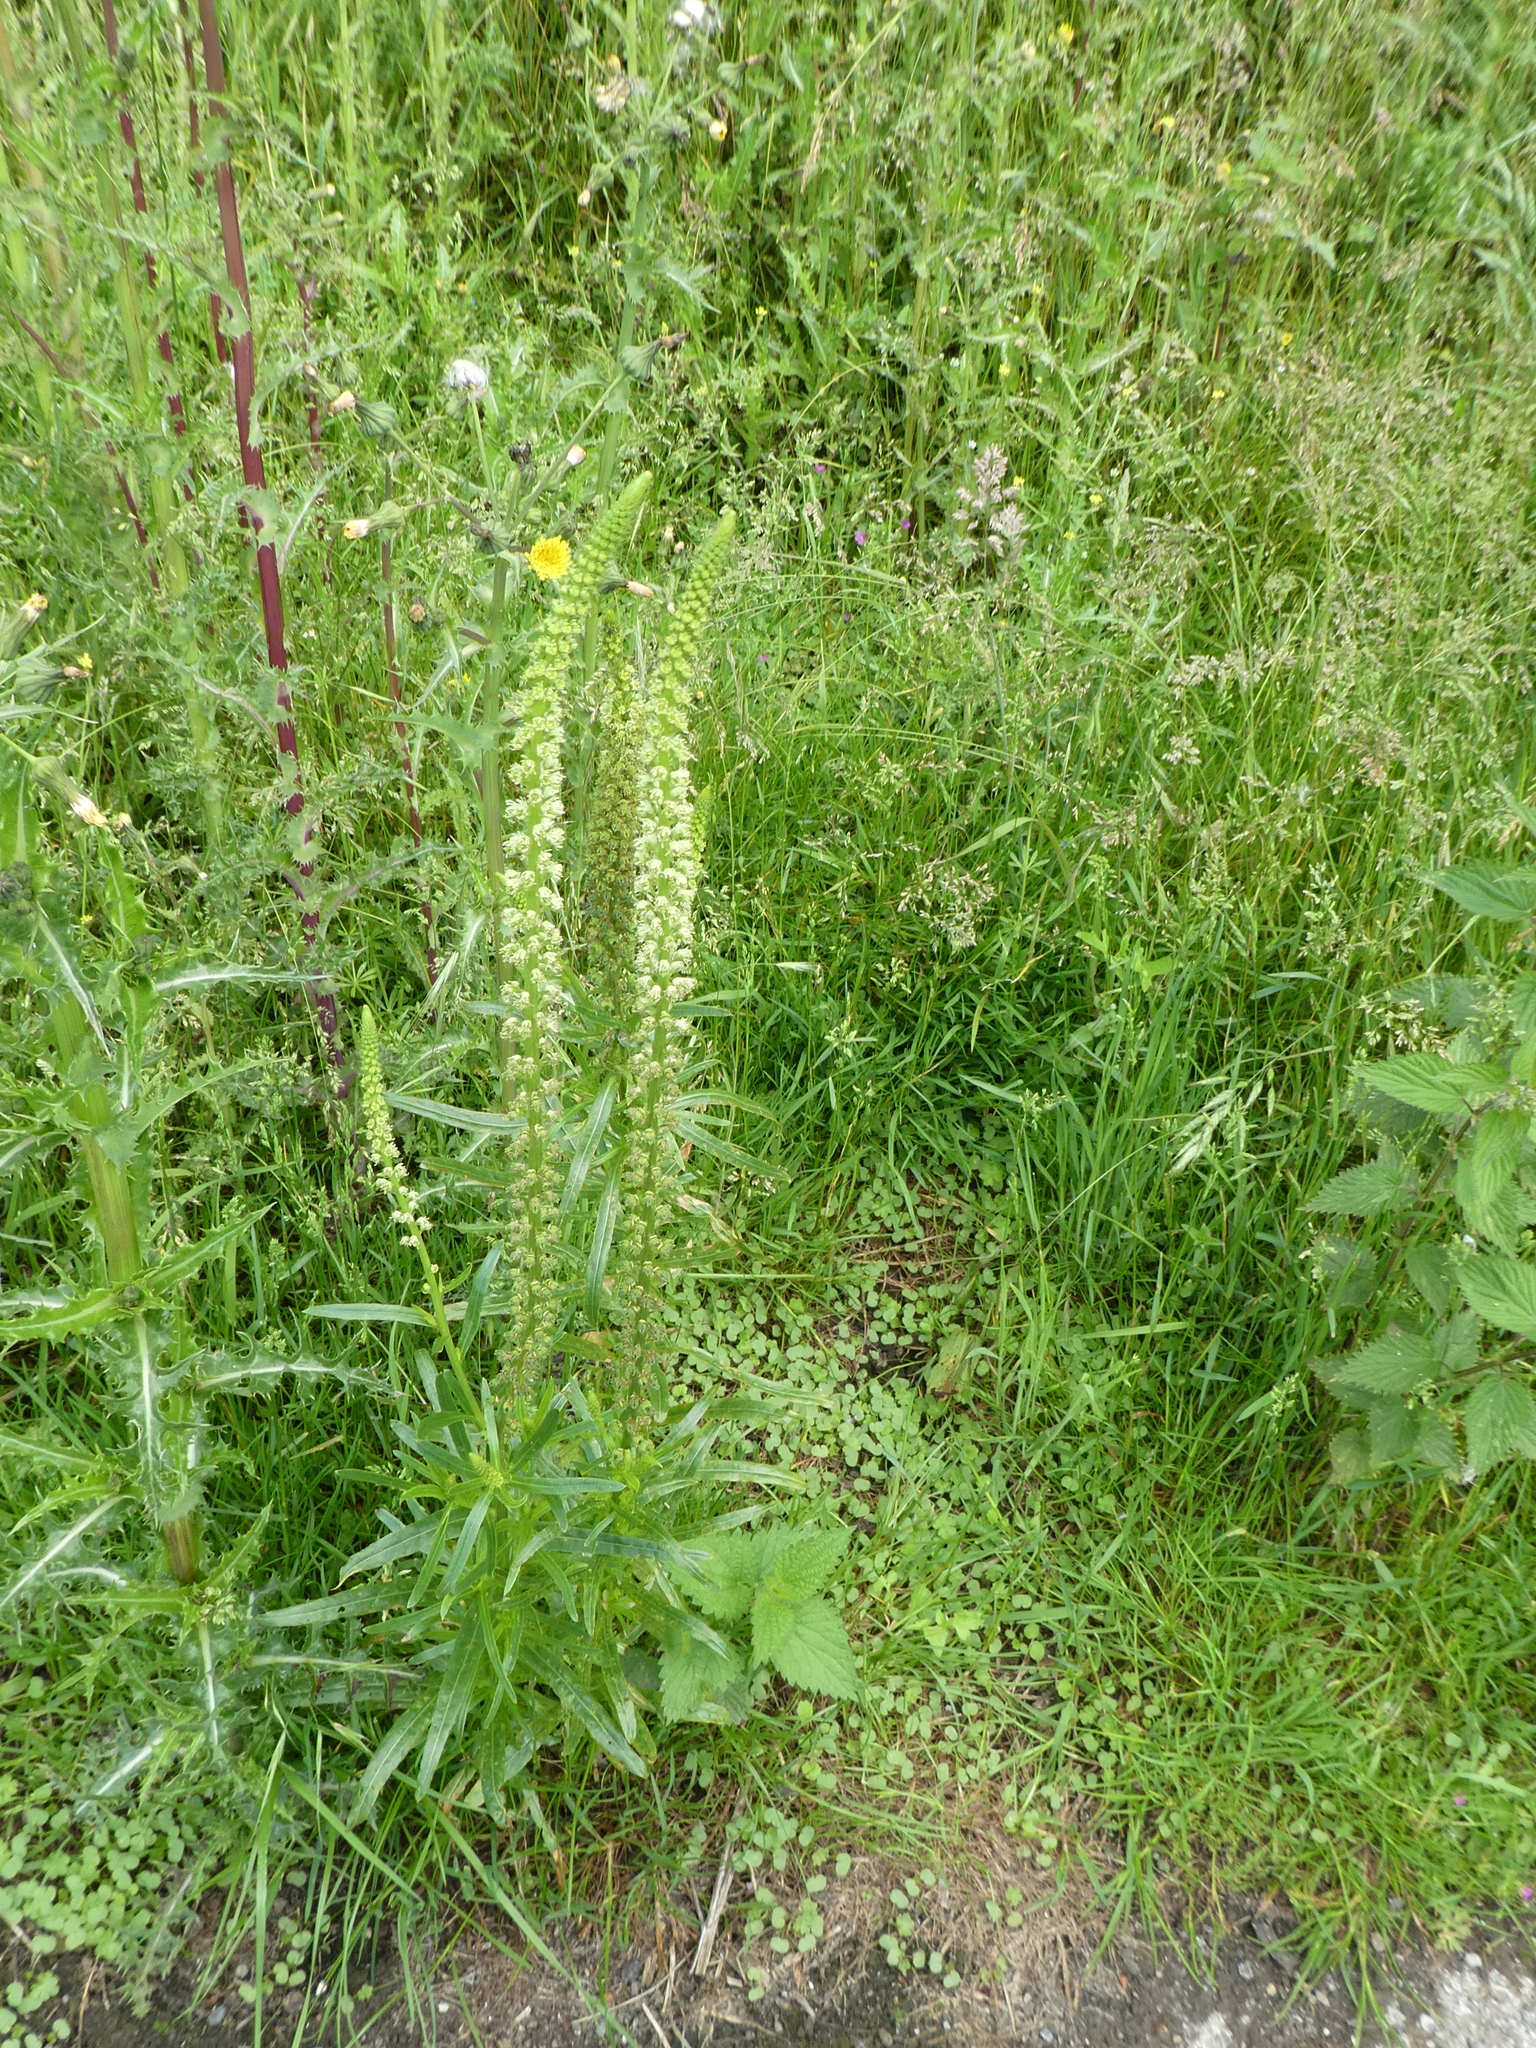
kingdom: Plantae
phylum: Tracheophyta
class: Magnoliopsida
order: Brassicales
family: Resedaceae
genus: Reseda
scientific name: Reseda luteola
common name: Weld
